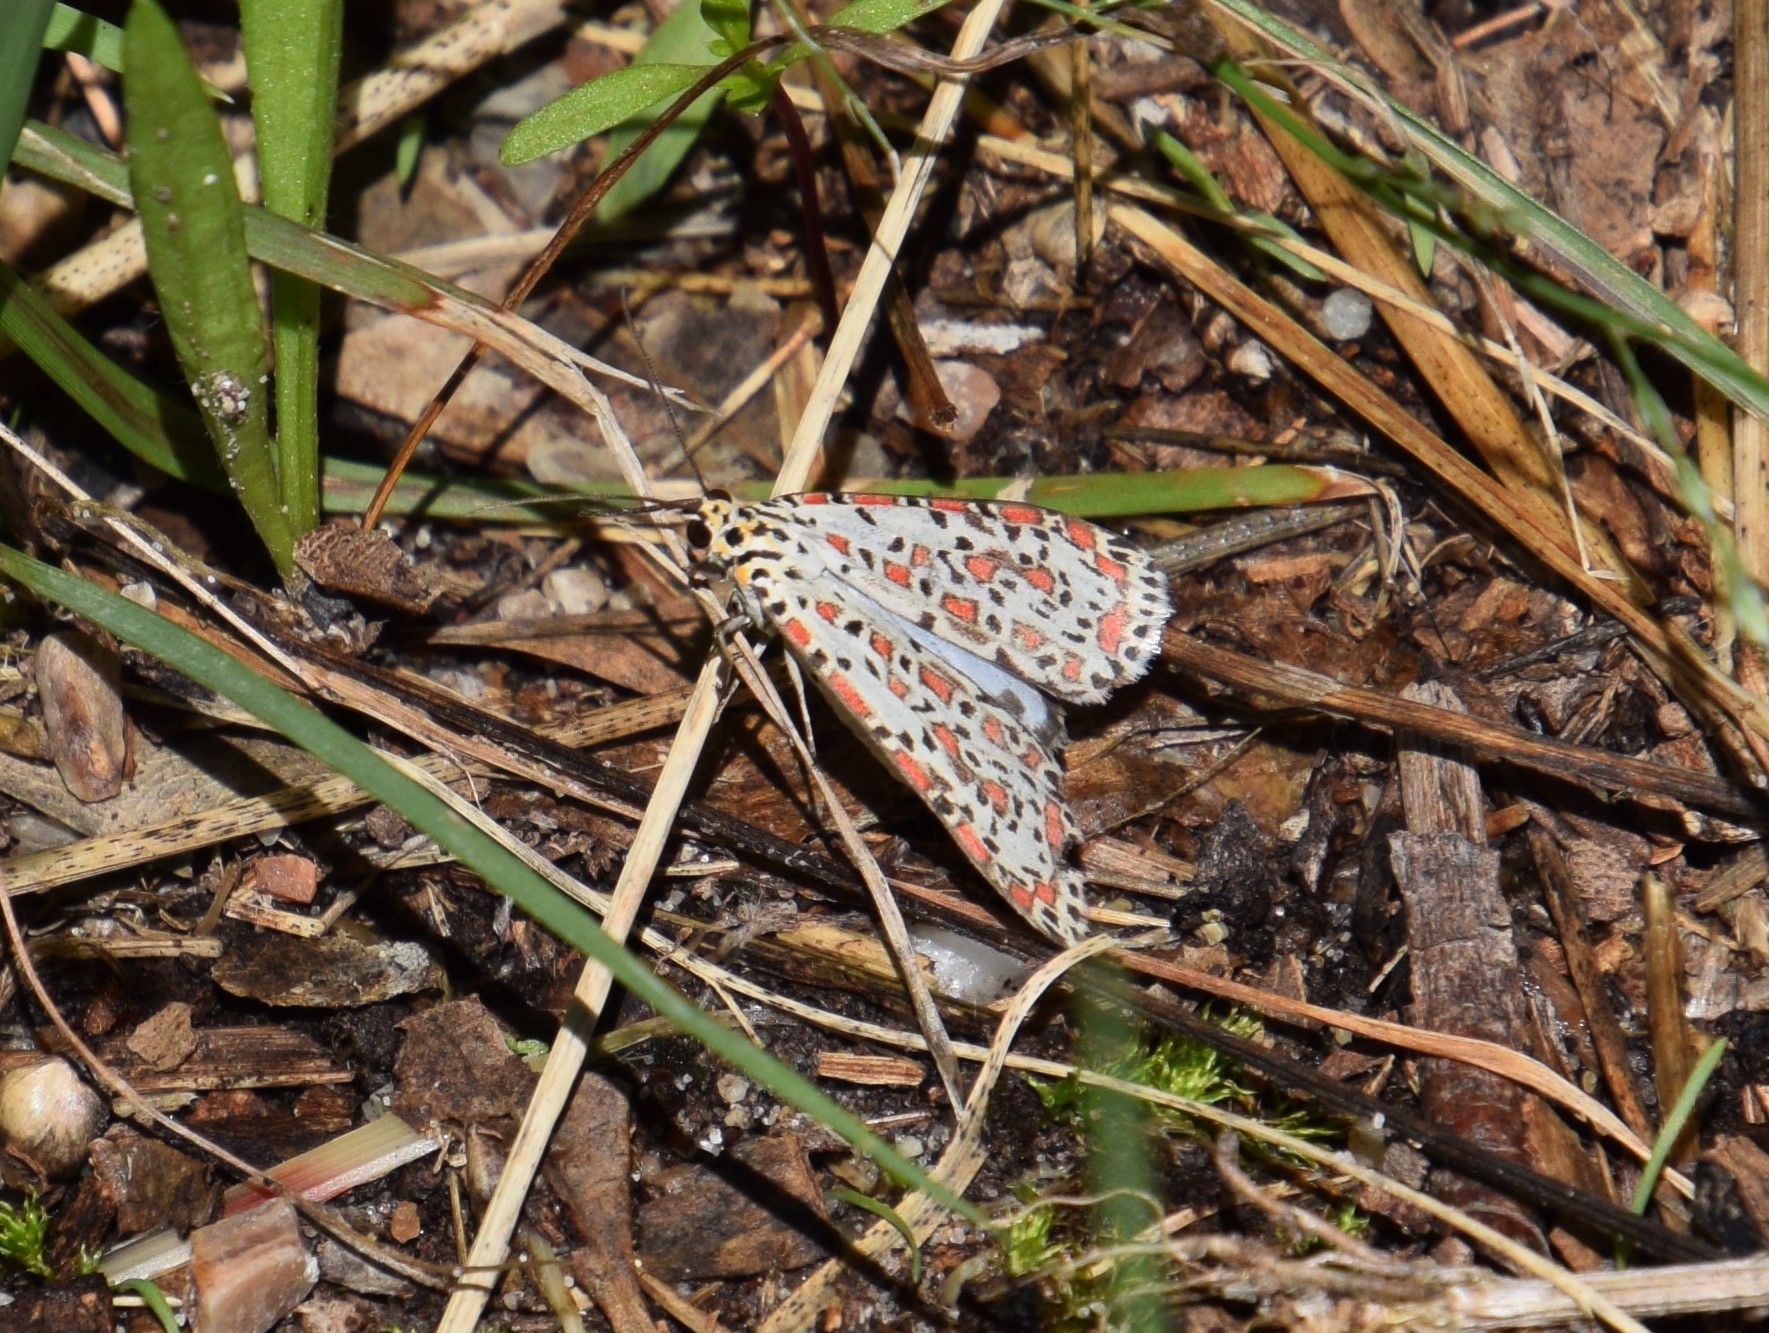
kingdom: Animalia
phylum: Arthropoda
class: Insecta
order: Lepidoptera
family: Erebidae
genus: Utetheisa
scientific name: Utetheisa pulchelloides
